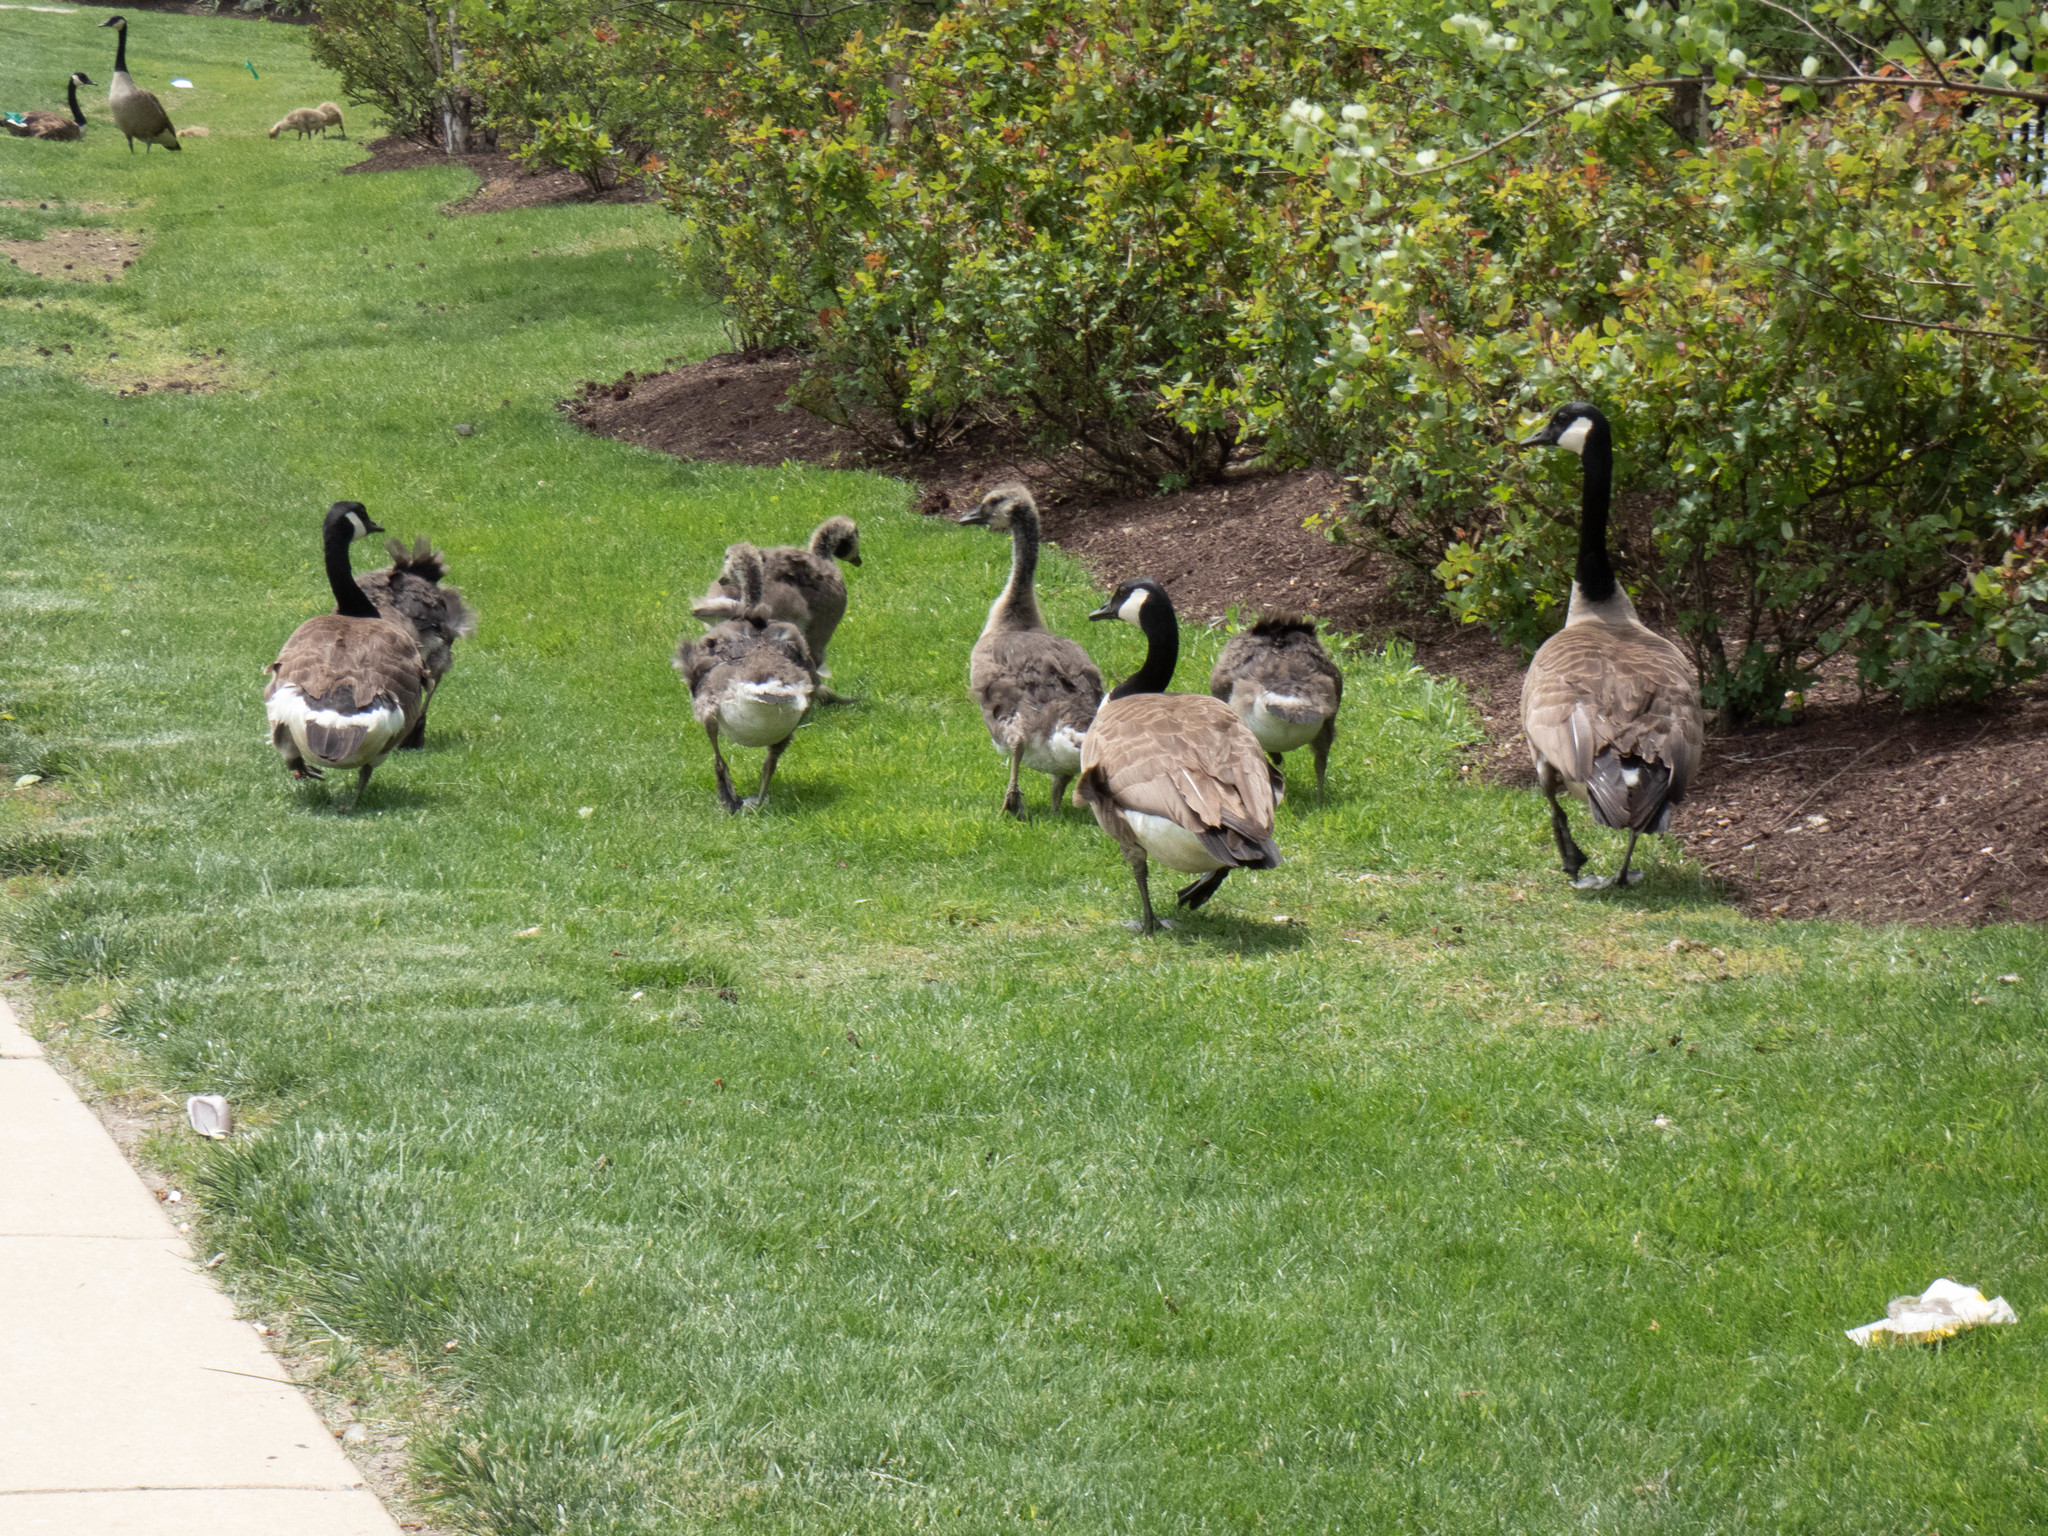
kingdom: Animalia
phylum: Chordata
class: Aves
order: Anseriformes
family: Anatidae
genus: Branta
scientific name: Branta canadensis
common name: Canada goose
